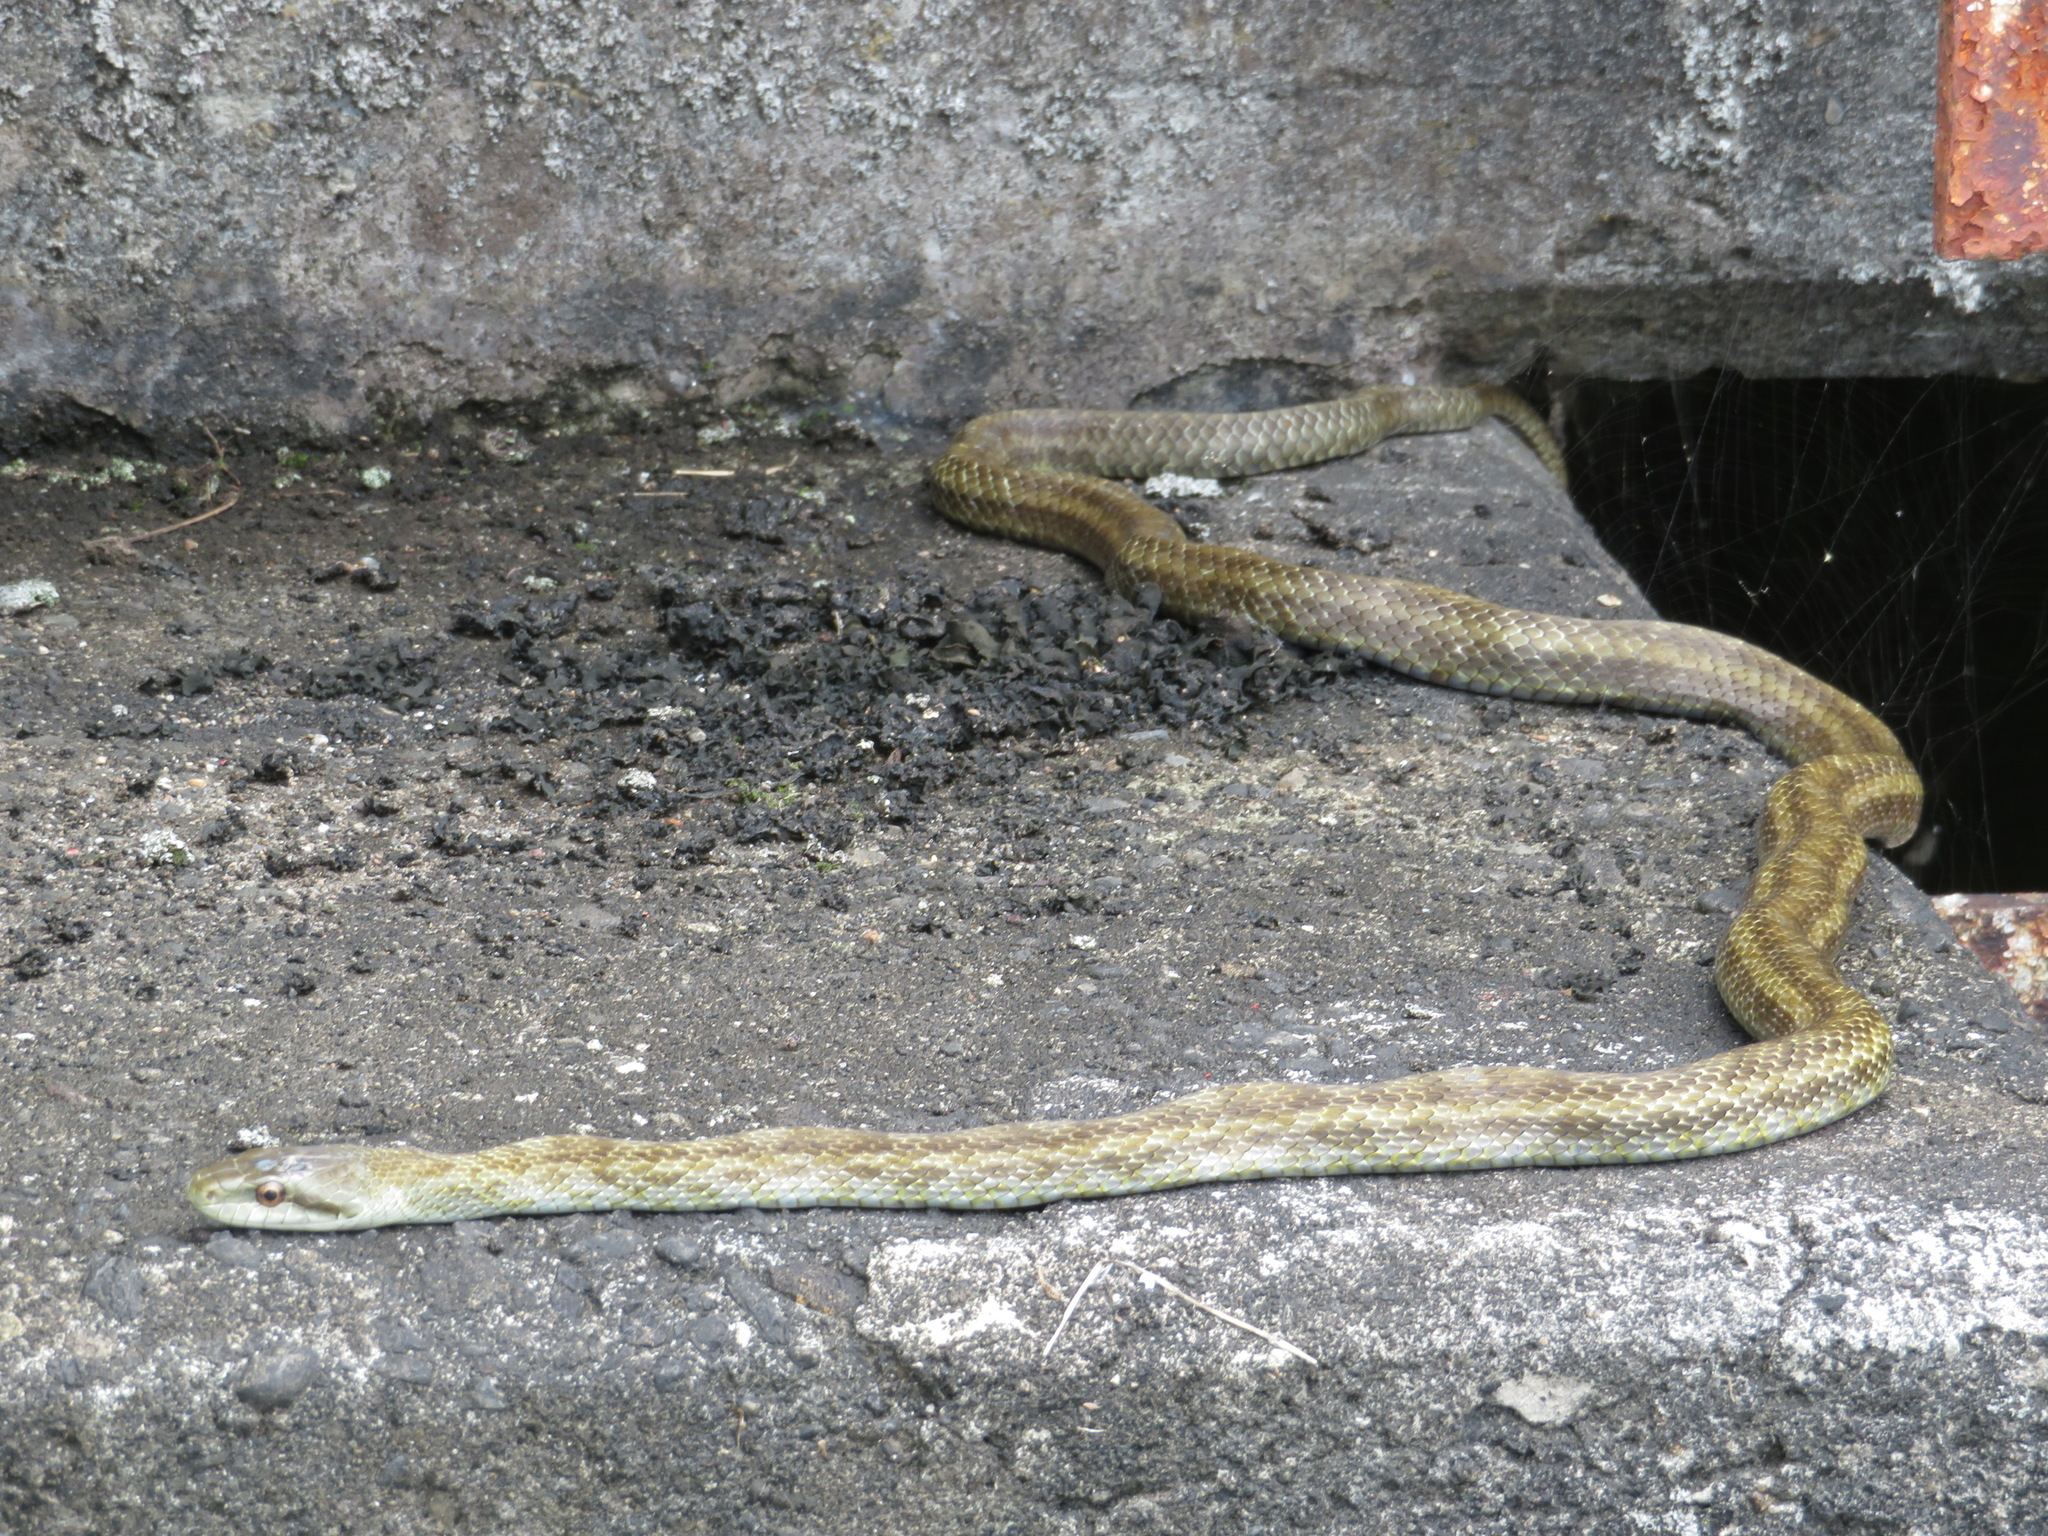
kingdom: Animalia
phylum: Chordata
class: Squamata
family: Colubridae
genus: Elaphe
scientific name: Elaphe climacophora
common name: Japanese ratsnake
